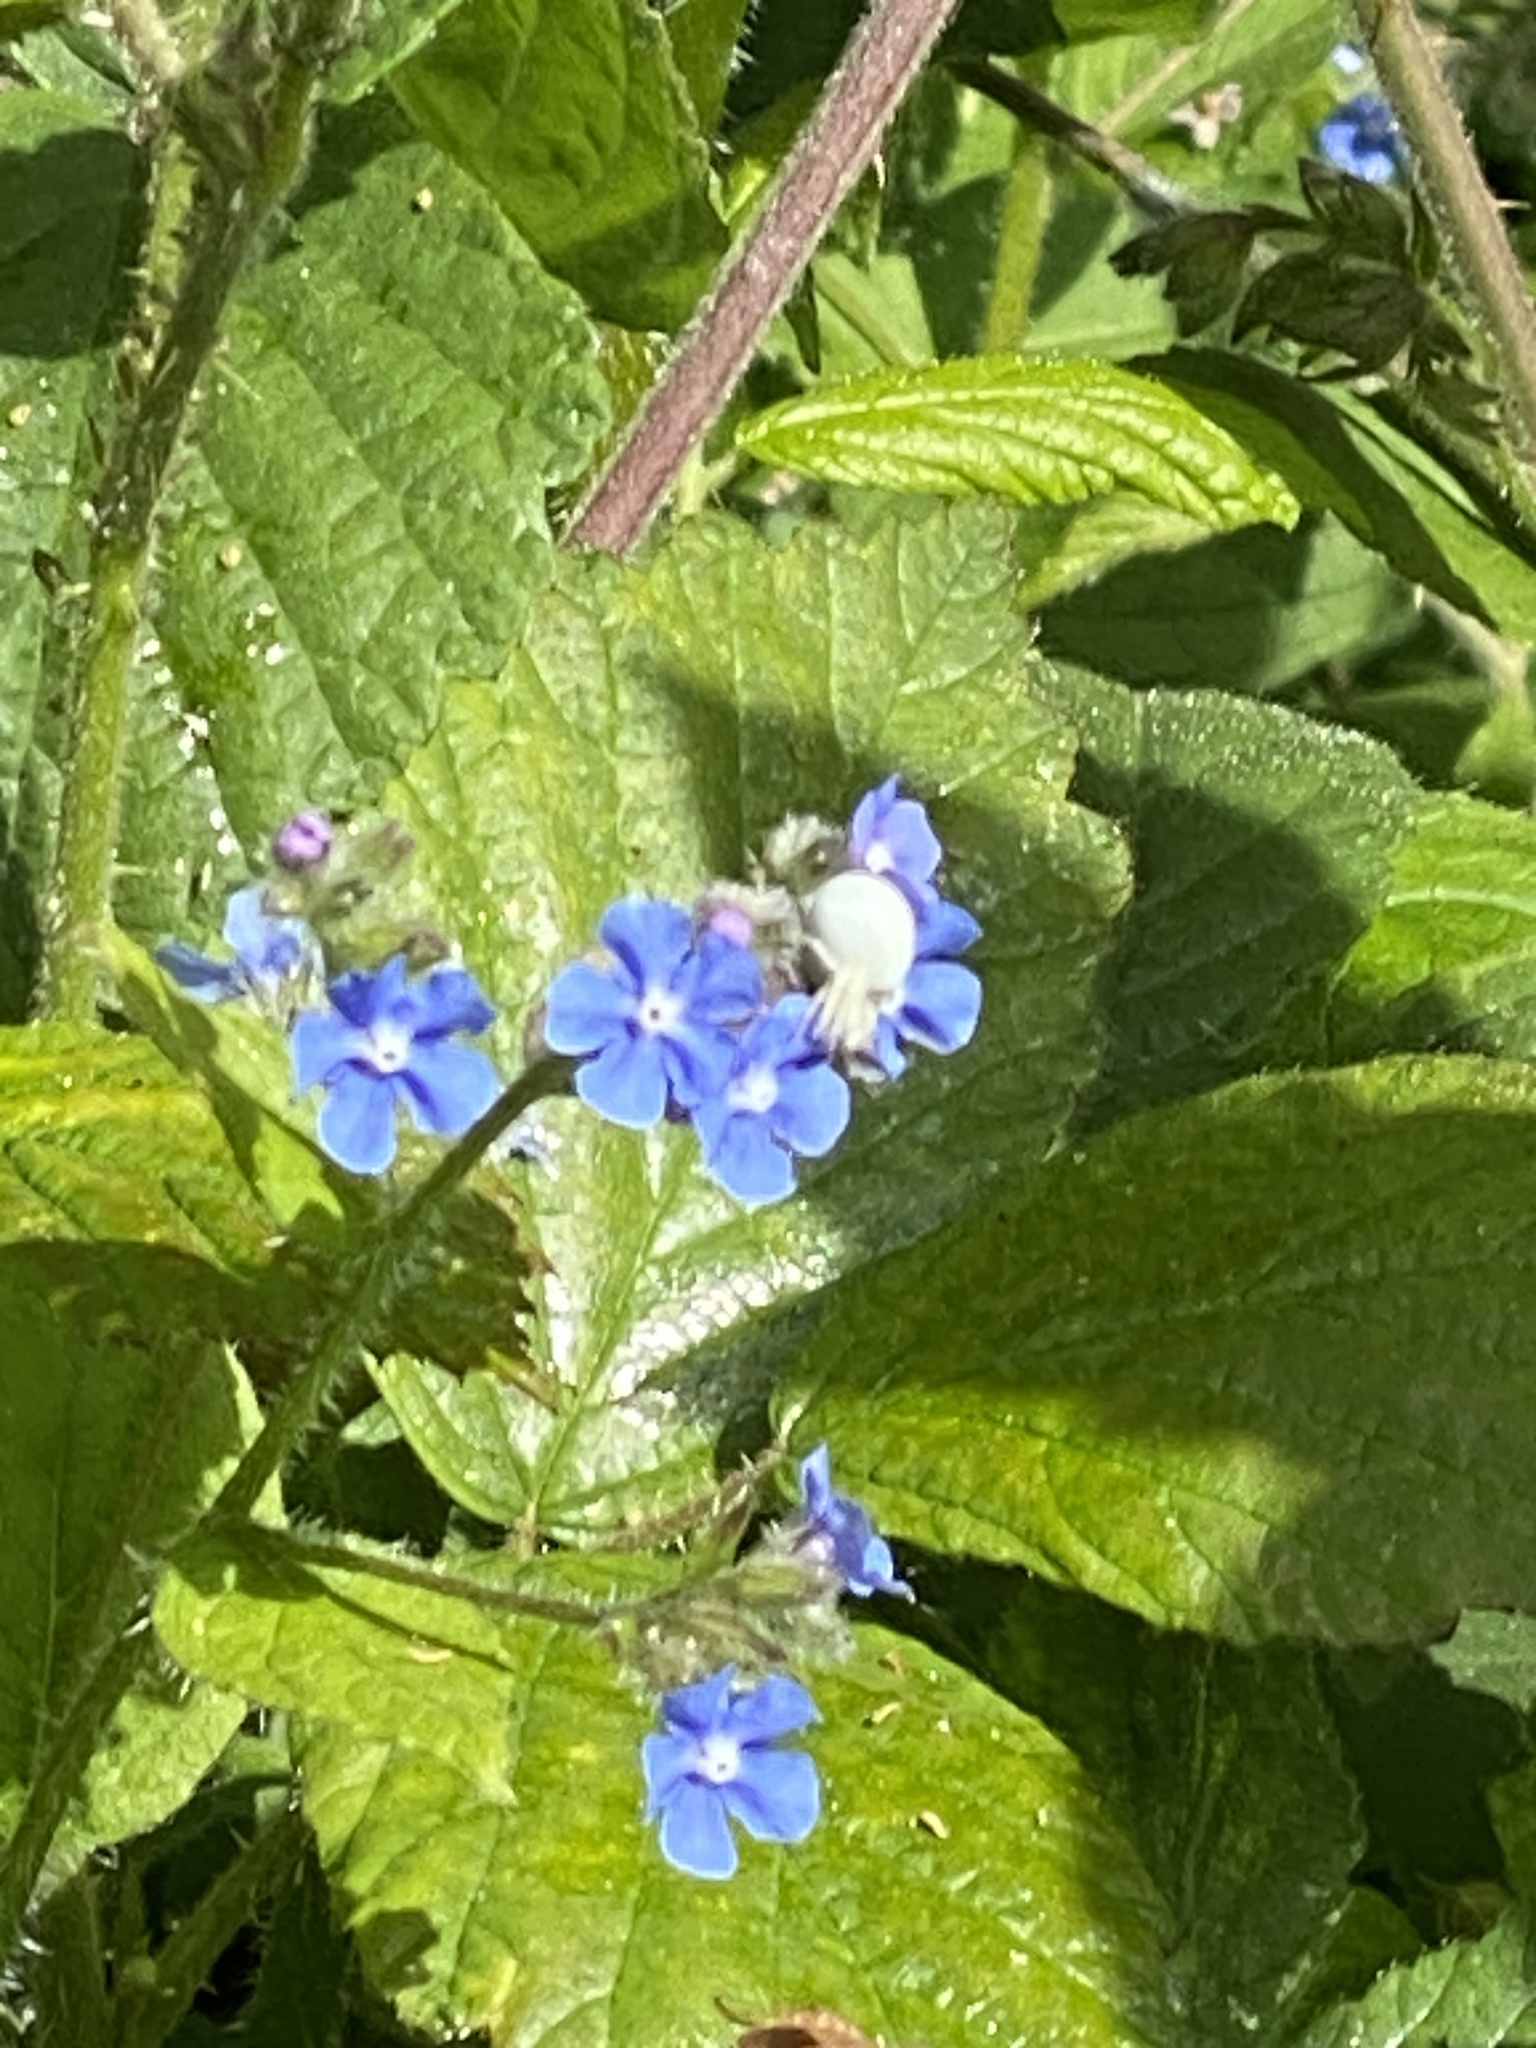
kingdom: Animalia
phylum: Arthropoda
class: Arachnida
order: Araneae
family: Thomisidae
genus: Misumena
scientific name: Misumena vatia
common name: Goldenrod crab spider
